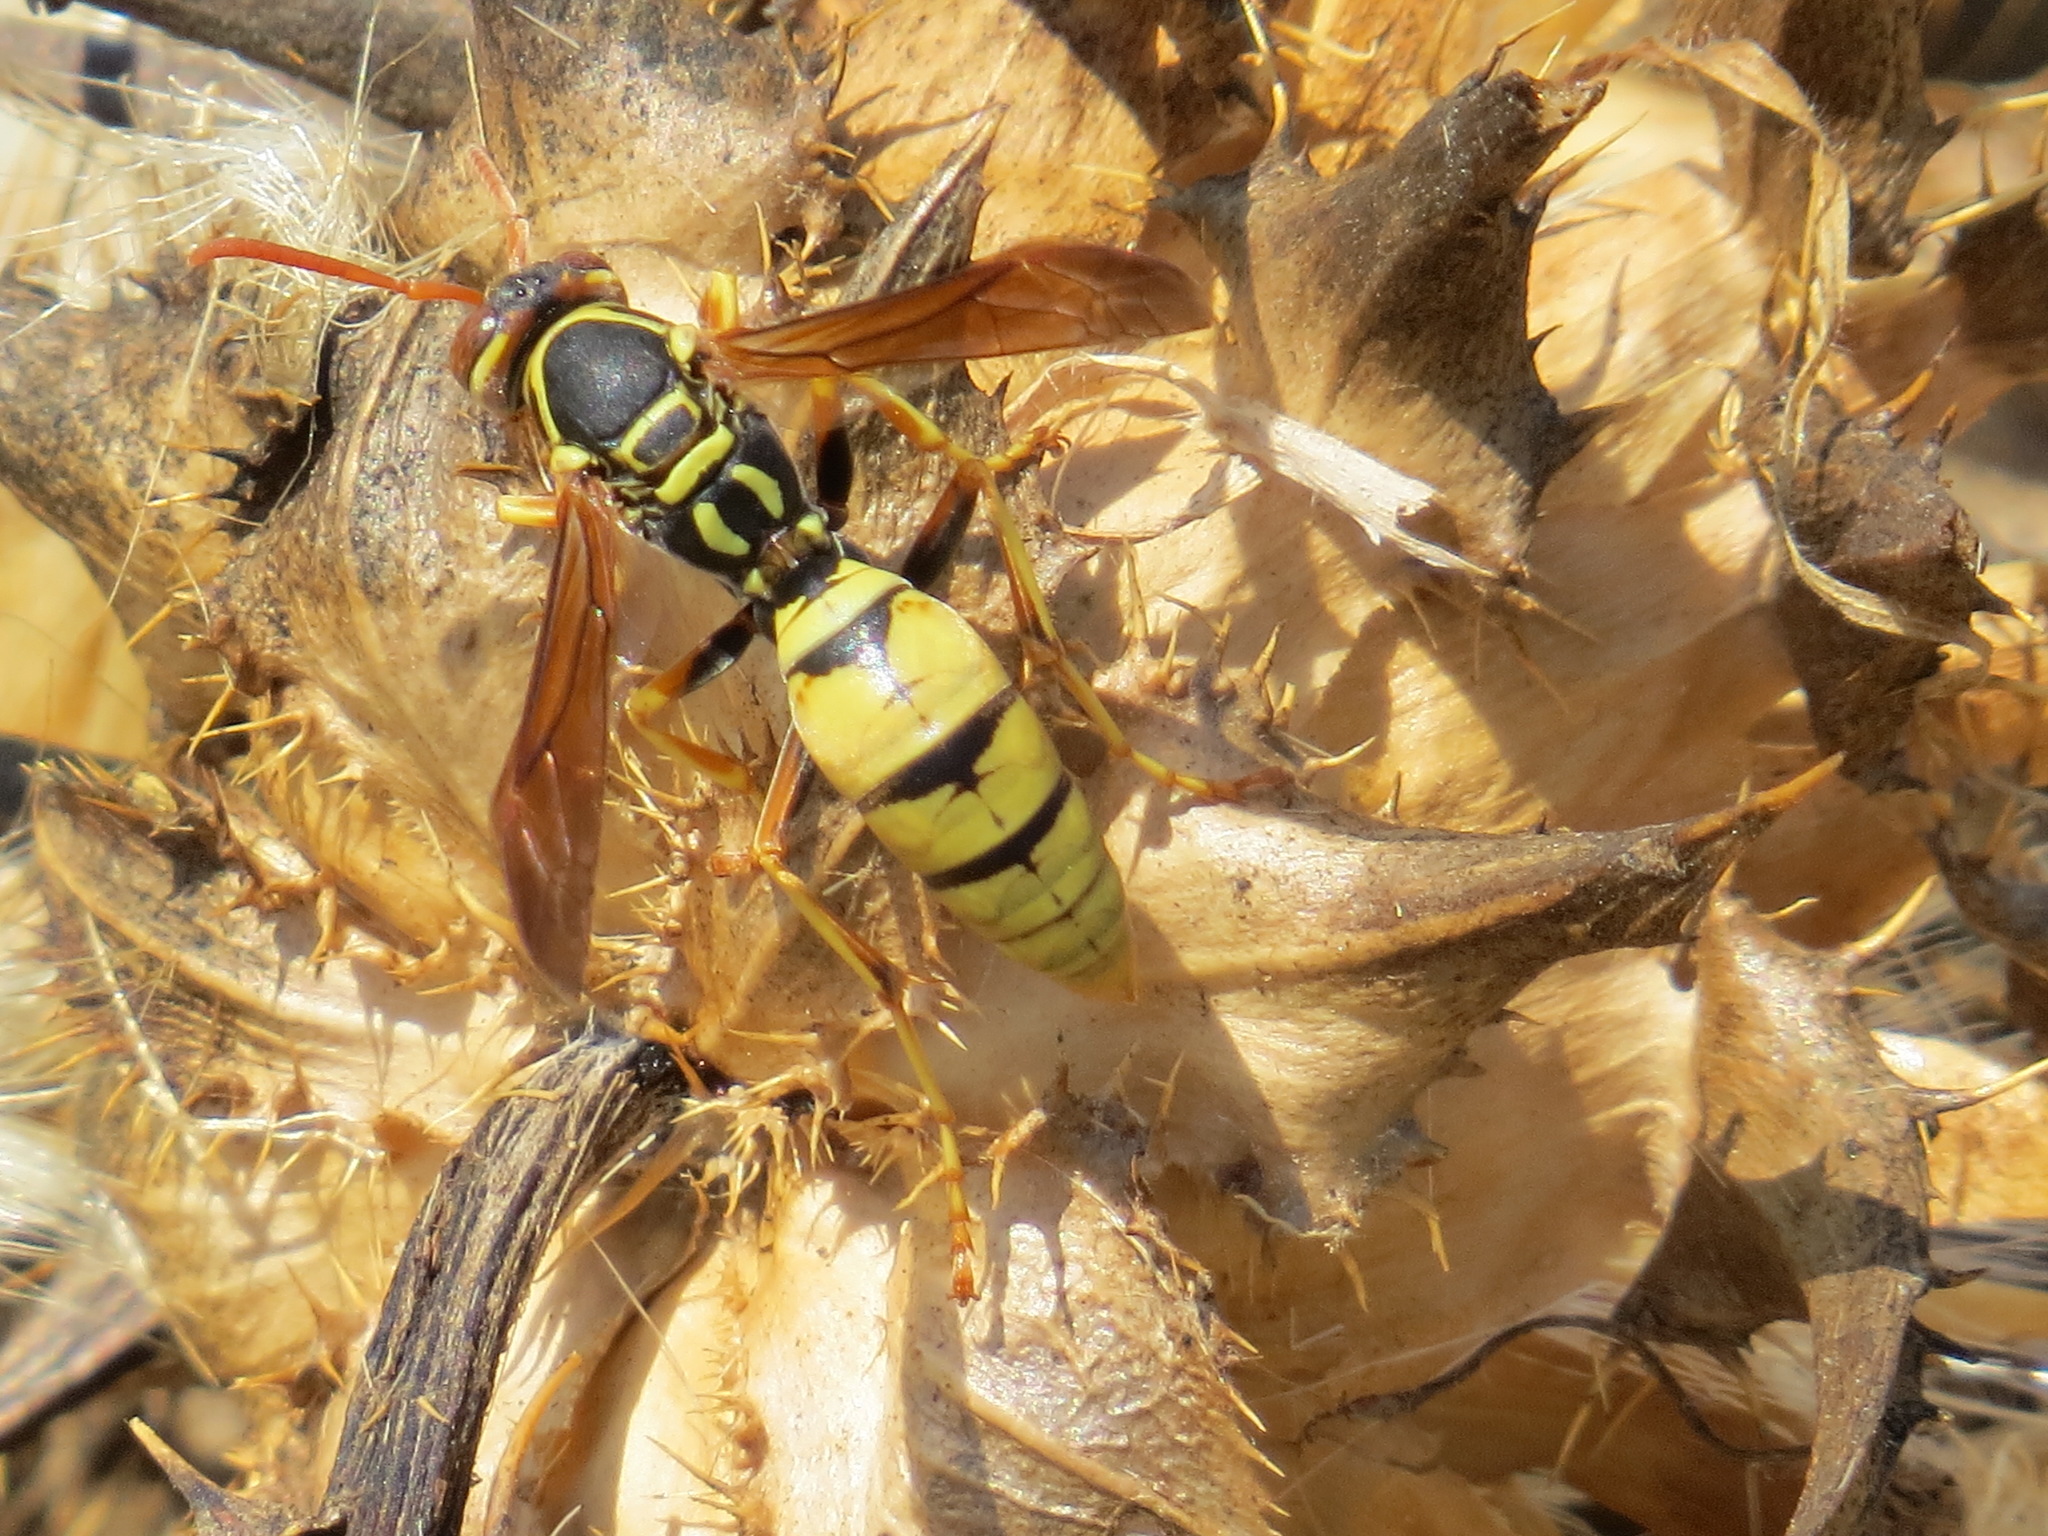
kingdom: Animalia
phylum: Arthropoda
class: Insecta
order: Hymenoptera
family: Eumenidae
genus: Polistes
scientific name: Polistes aurifer
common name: Paper wasp
